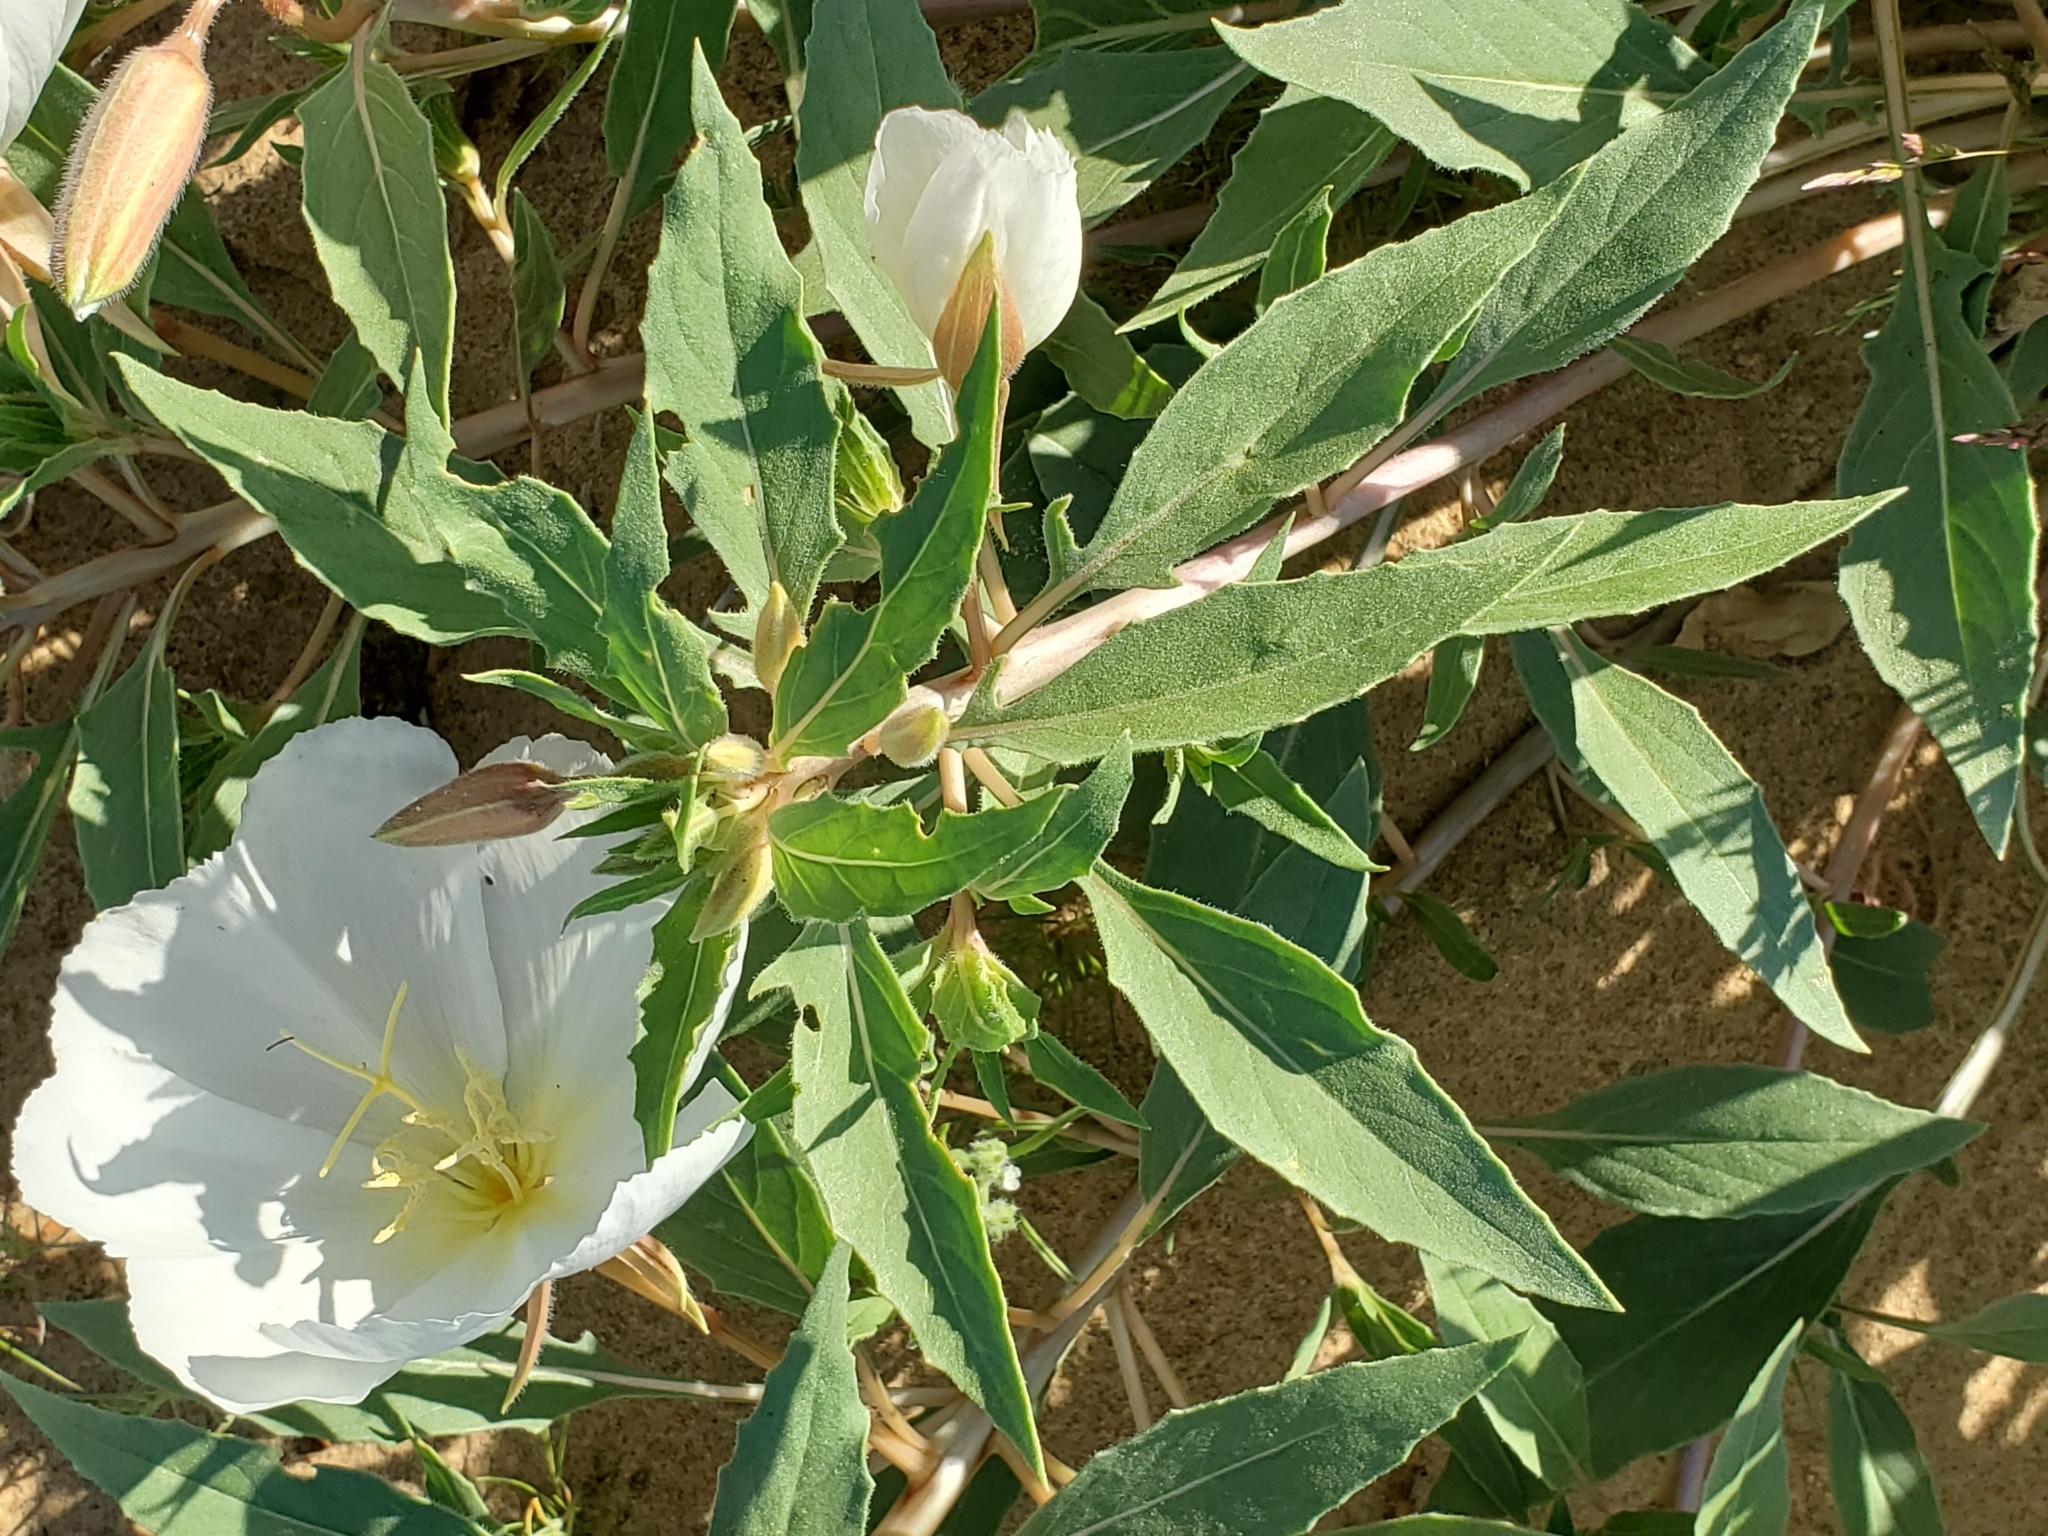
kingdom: Plantae
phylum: Tracheophyta
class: Magnoliopsida
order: Myrtales
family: Onagraceae
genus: Oenothera
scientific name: Oenothera deltoides
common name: Basket evening-primrose
